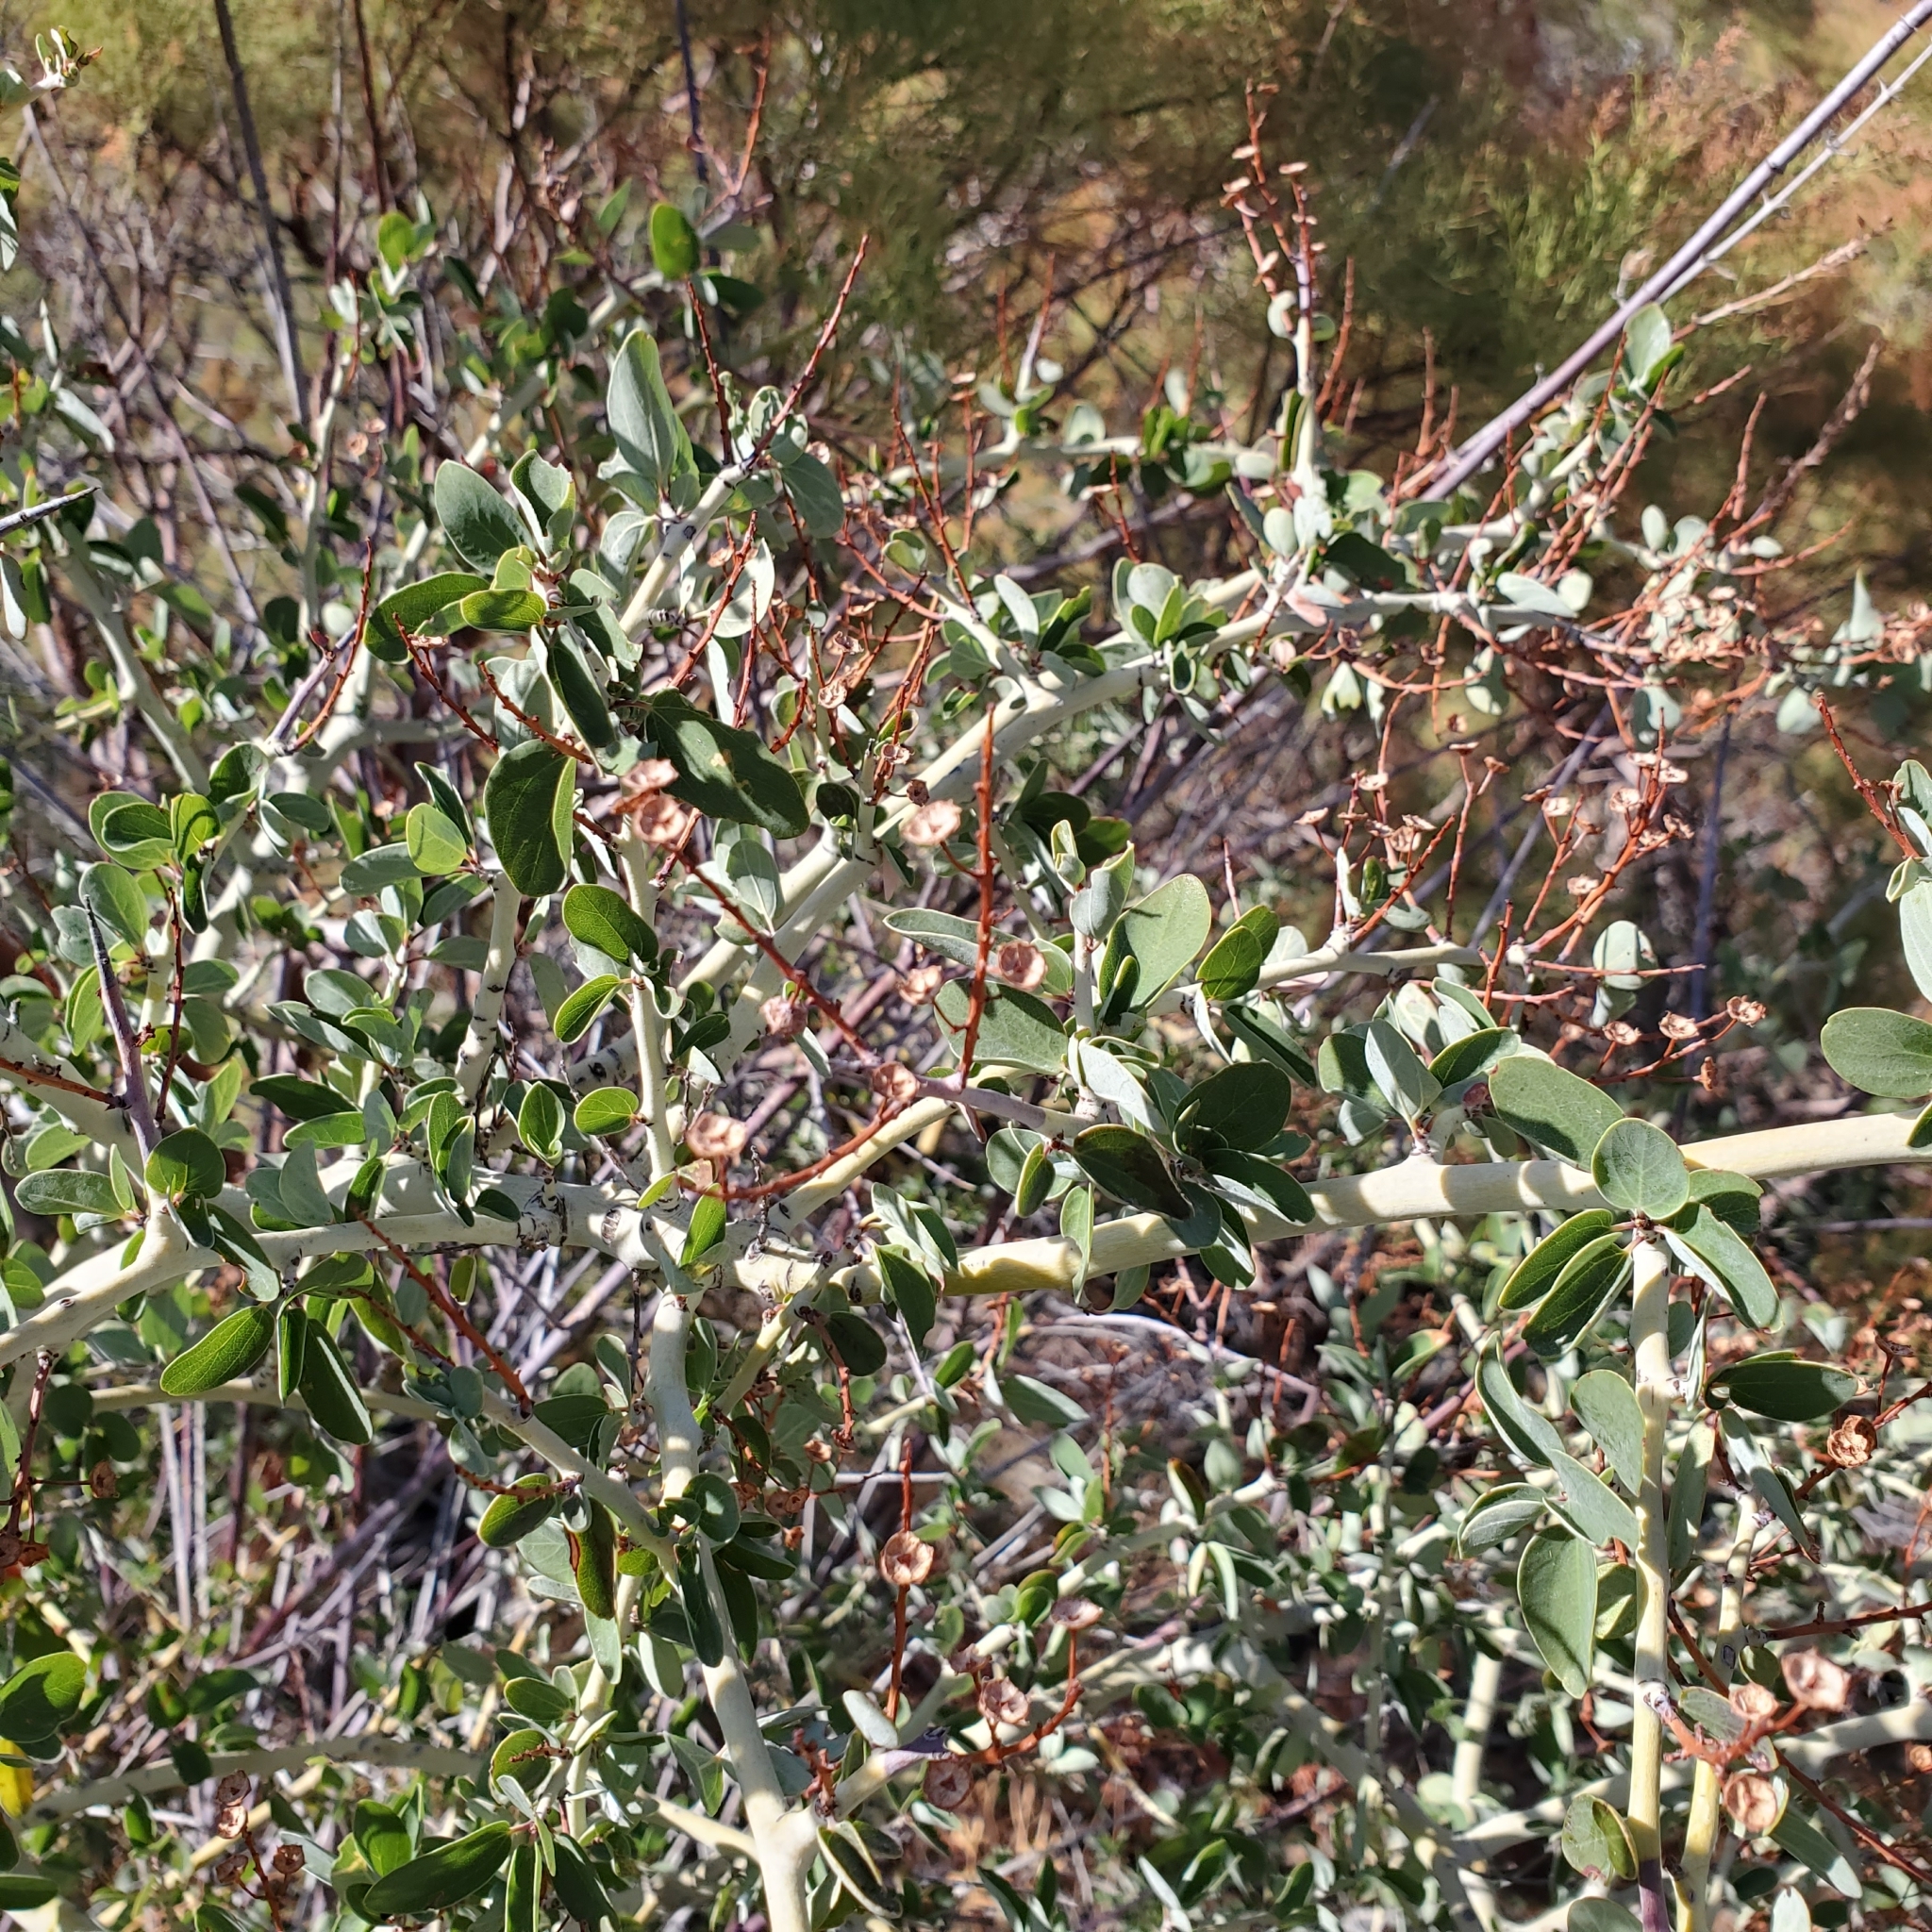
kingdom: Plantae
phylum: Tracheophyta
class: Magnoliopsida
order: Rosales
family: Rhamnaceae
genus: Ceanothus
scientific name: Ceanothus leucodermis
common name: Chaparral whitethorn
